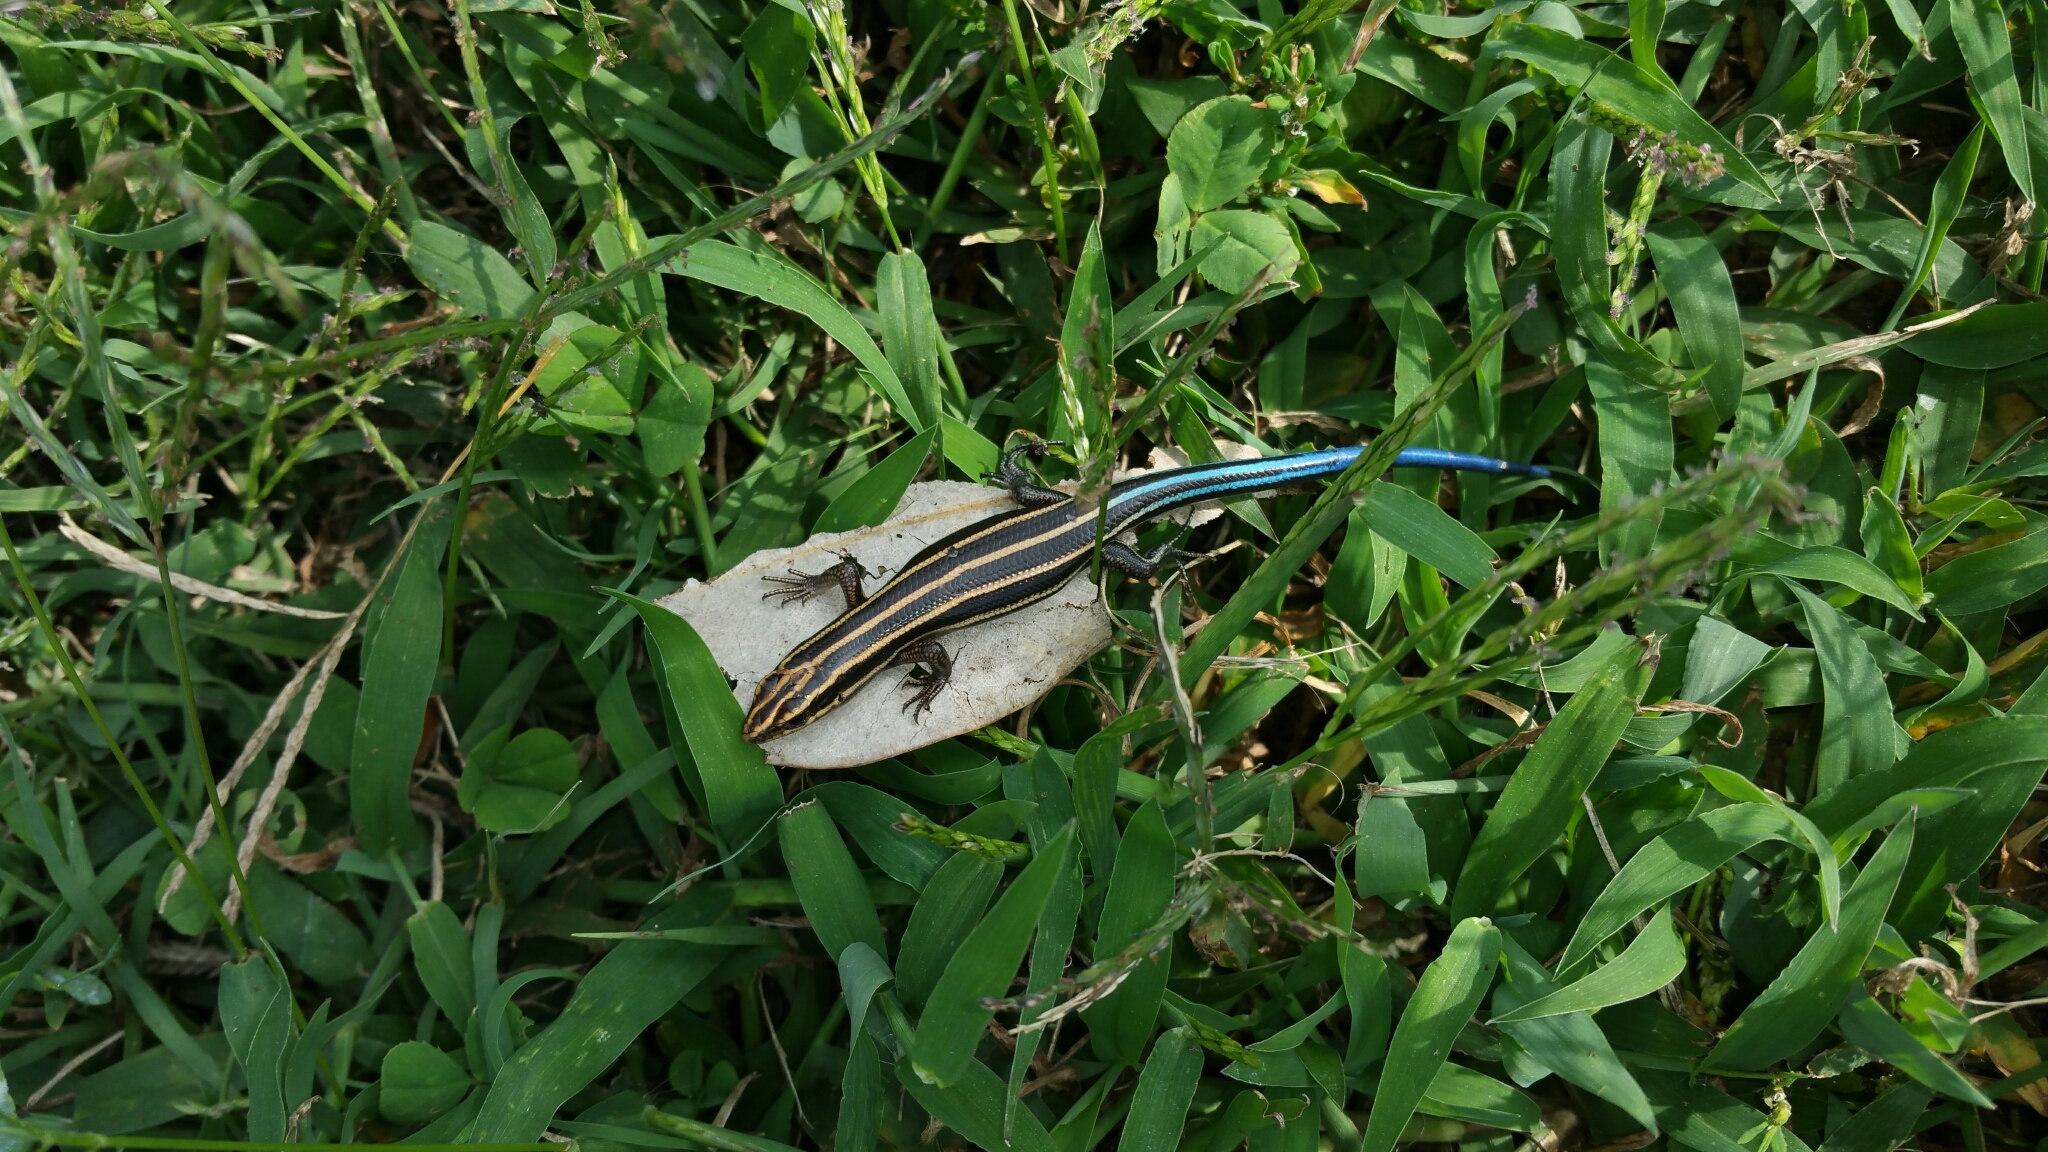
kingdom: Animalia
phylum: Chordata
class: Squamata
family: Scincidae
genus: Plestiodon
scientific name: Plestiodon fasciatus
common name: Five-lined skink
